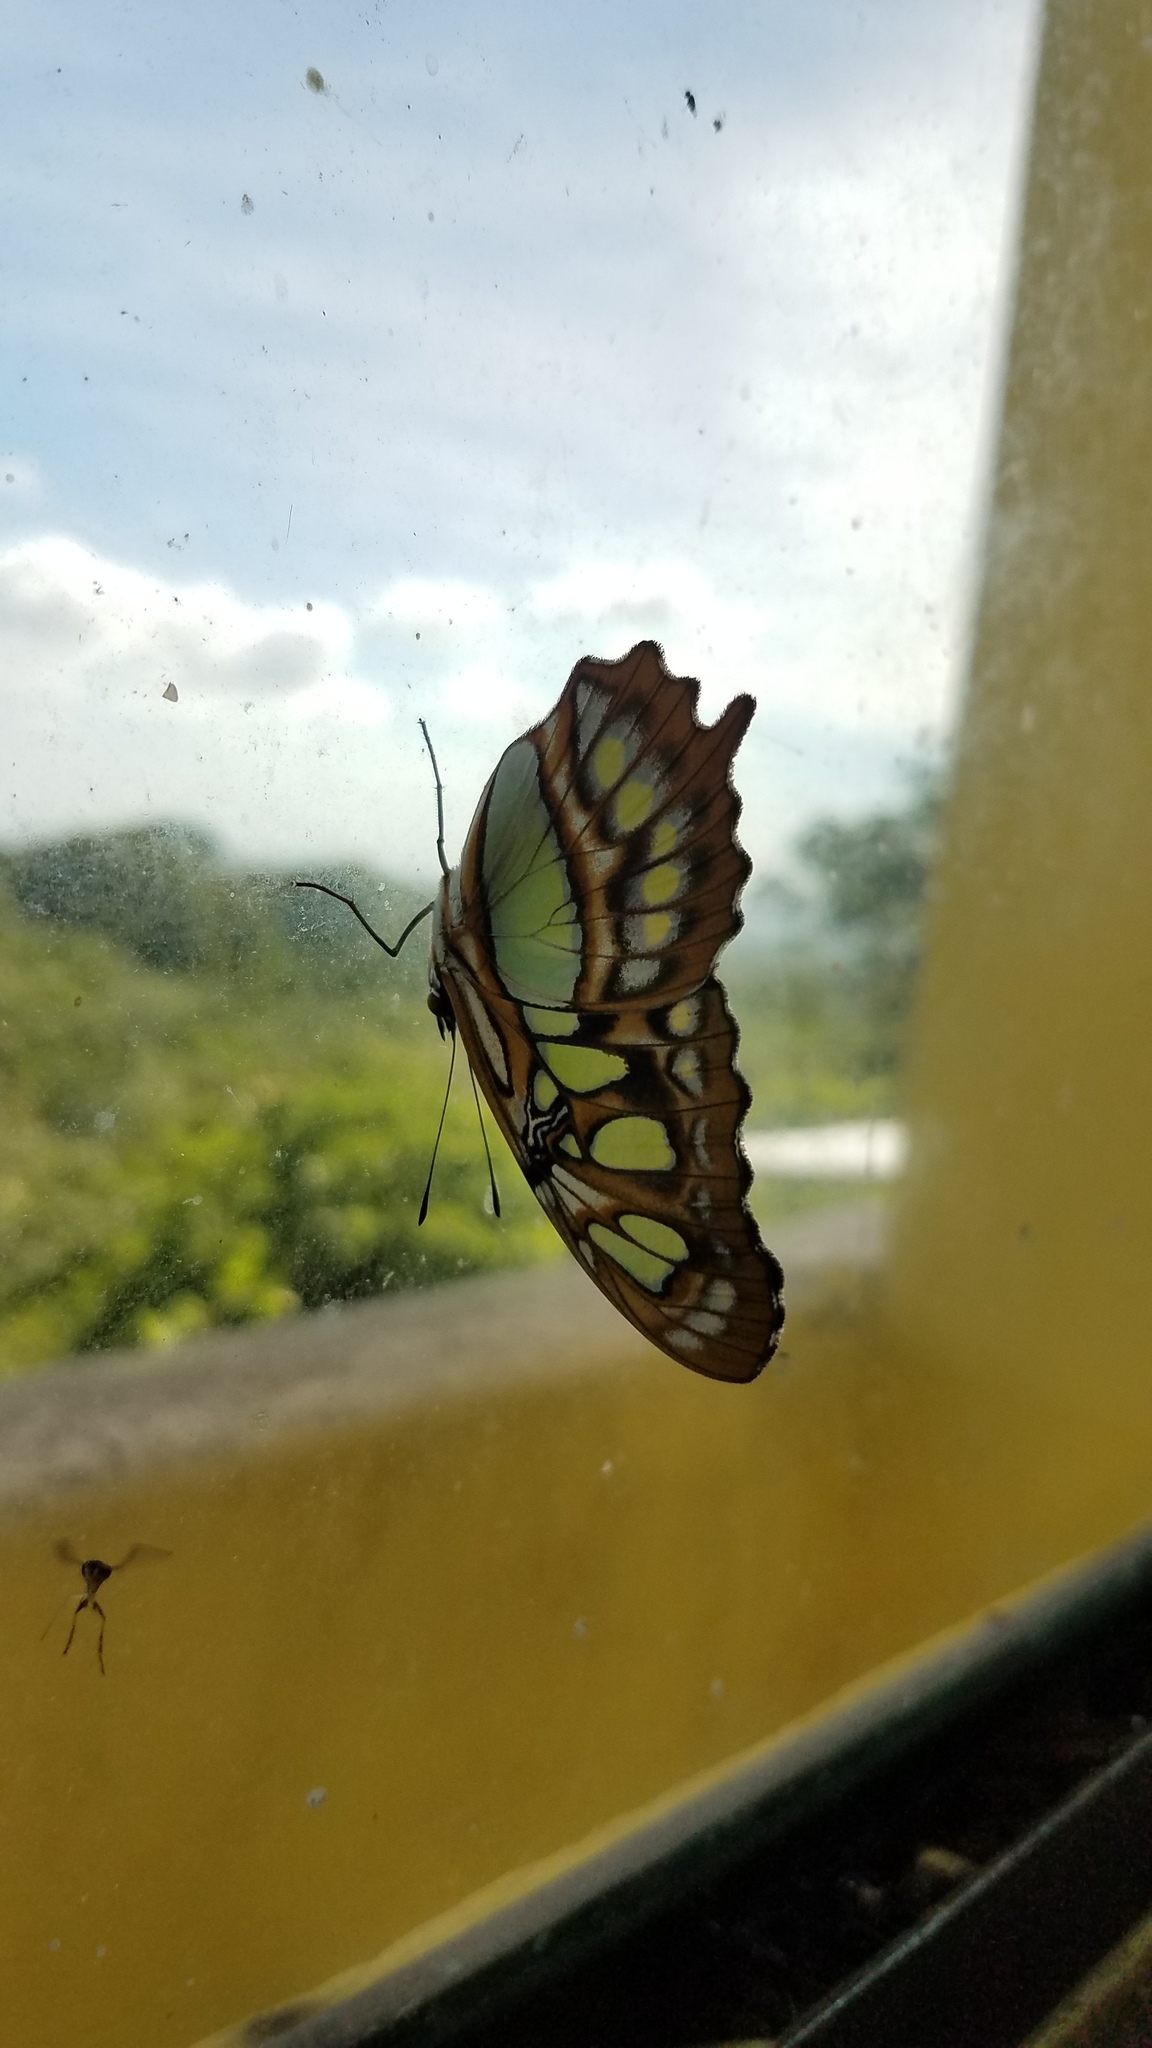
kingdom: Animalia
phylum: Arthropoda
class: Insecta
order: Lepidoptera
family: Nymphalidae
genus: Siproeta
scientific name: Siproeta stelenes
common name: Malachite
